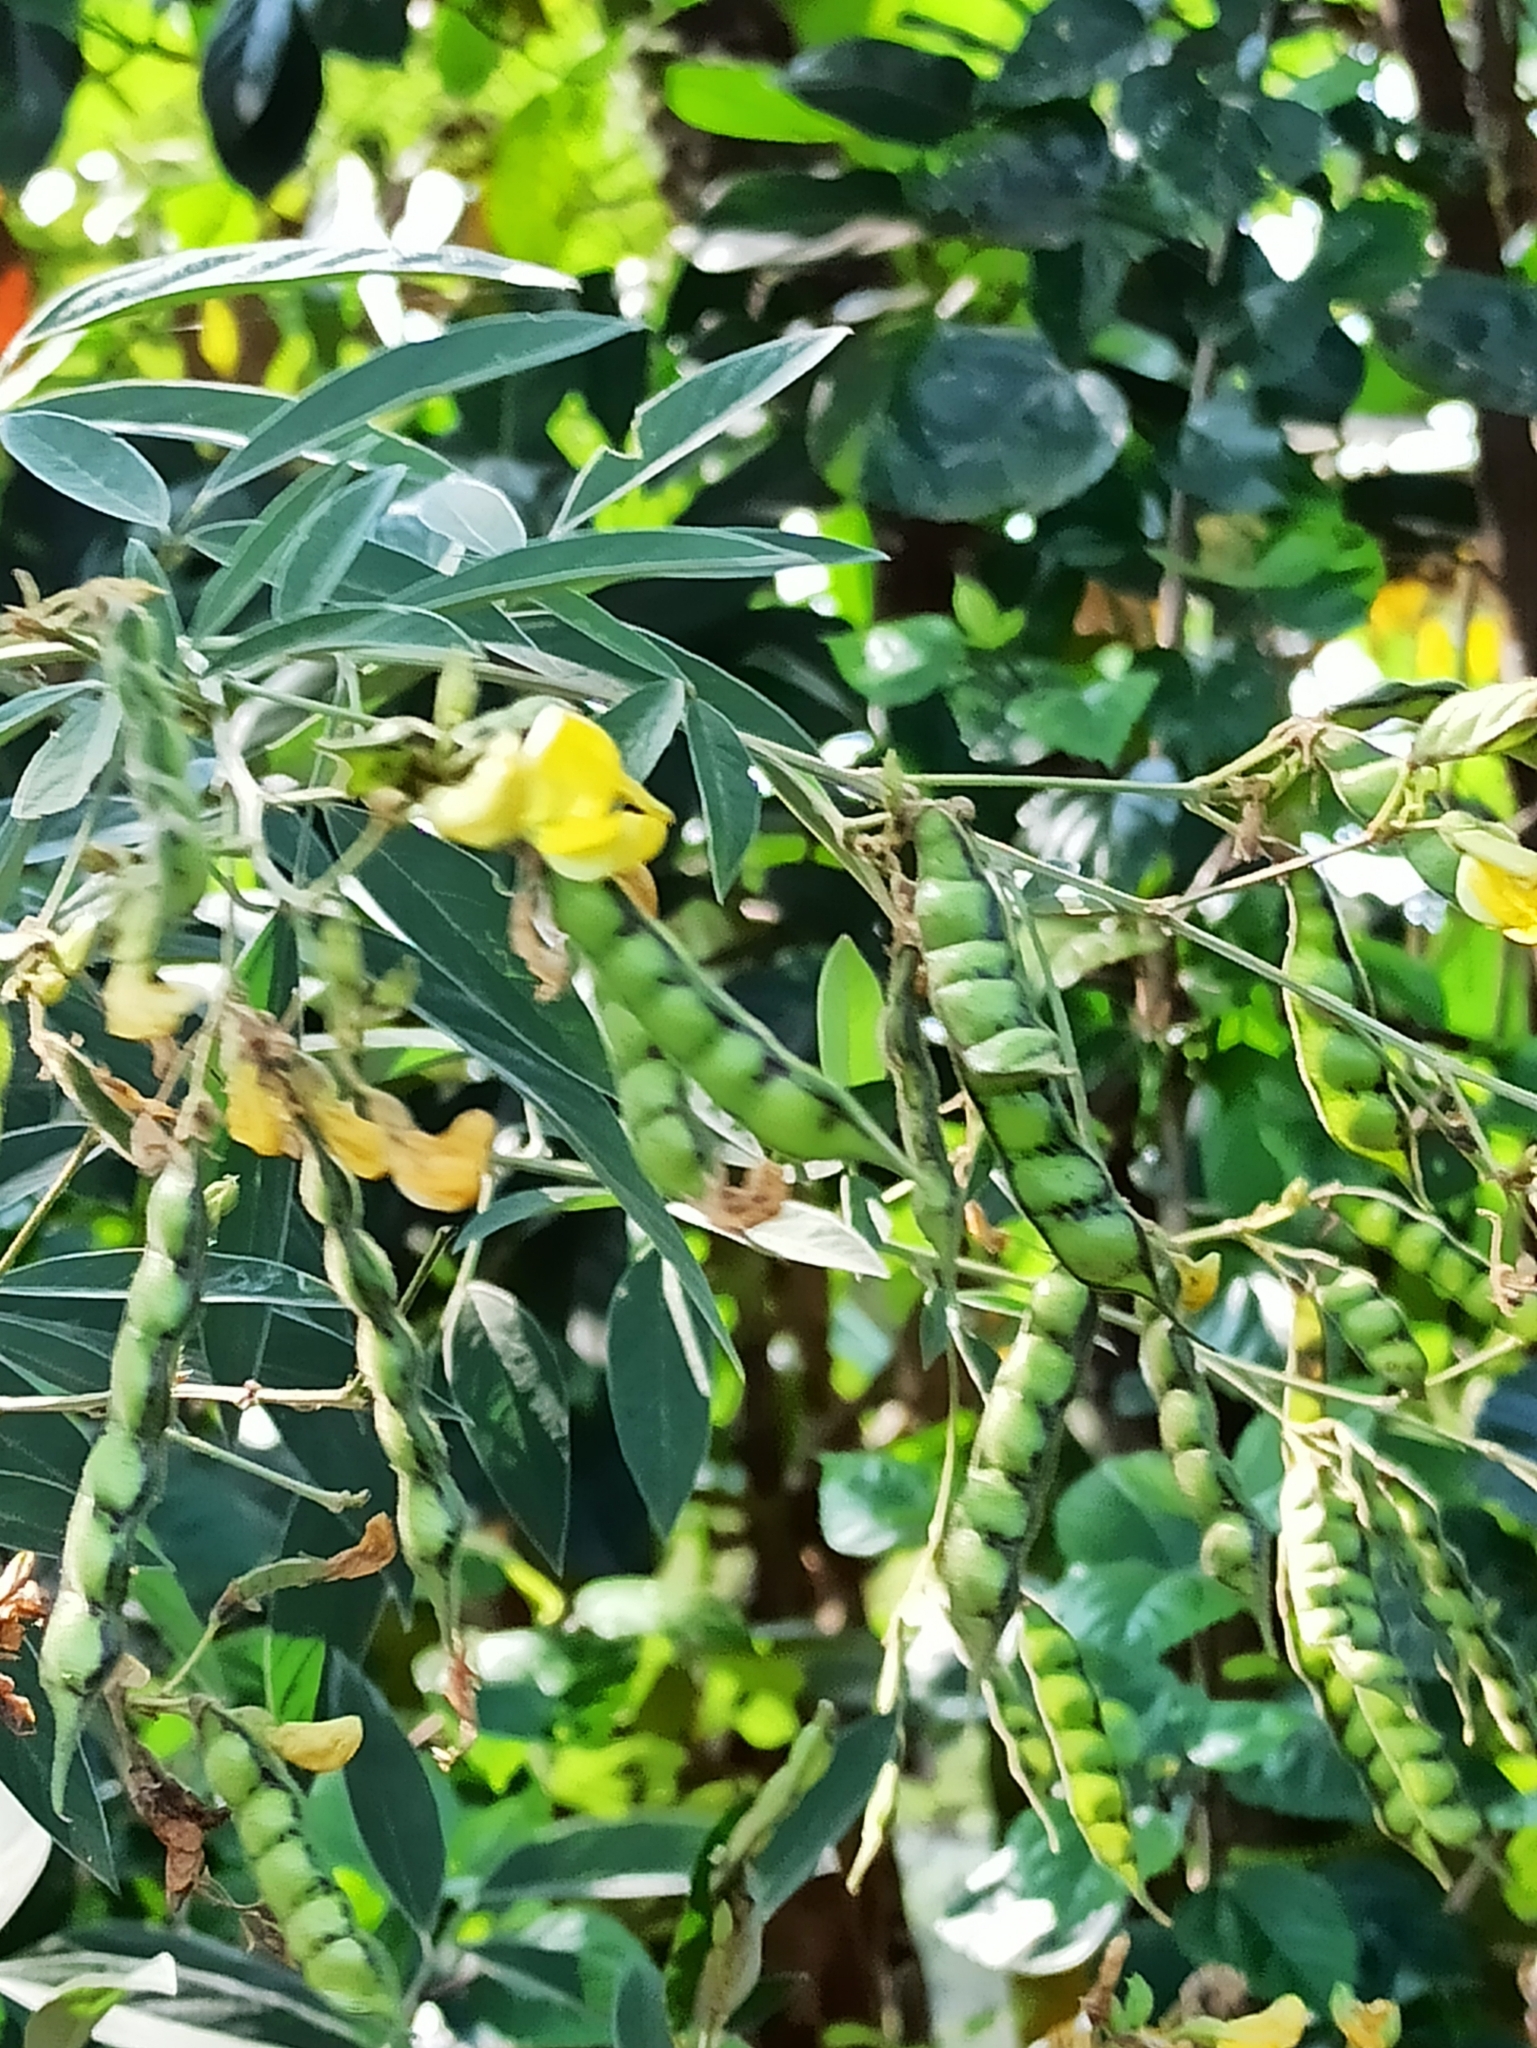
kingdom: Plantae
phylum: Tracheophyta
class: Magnoliopsida
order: Fabales
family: Fabaceae
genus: Cajanus
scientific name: Cajanus cajan
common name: Pigeonpea
